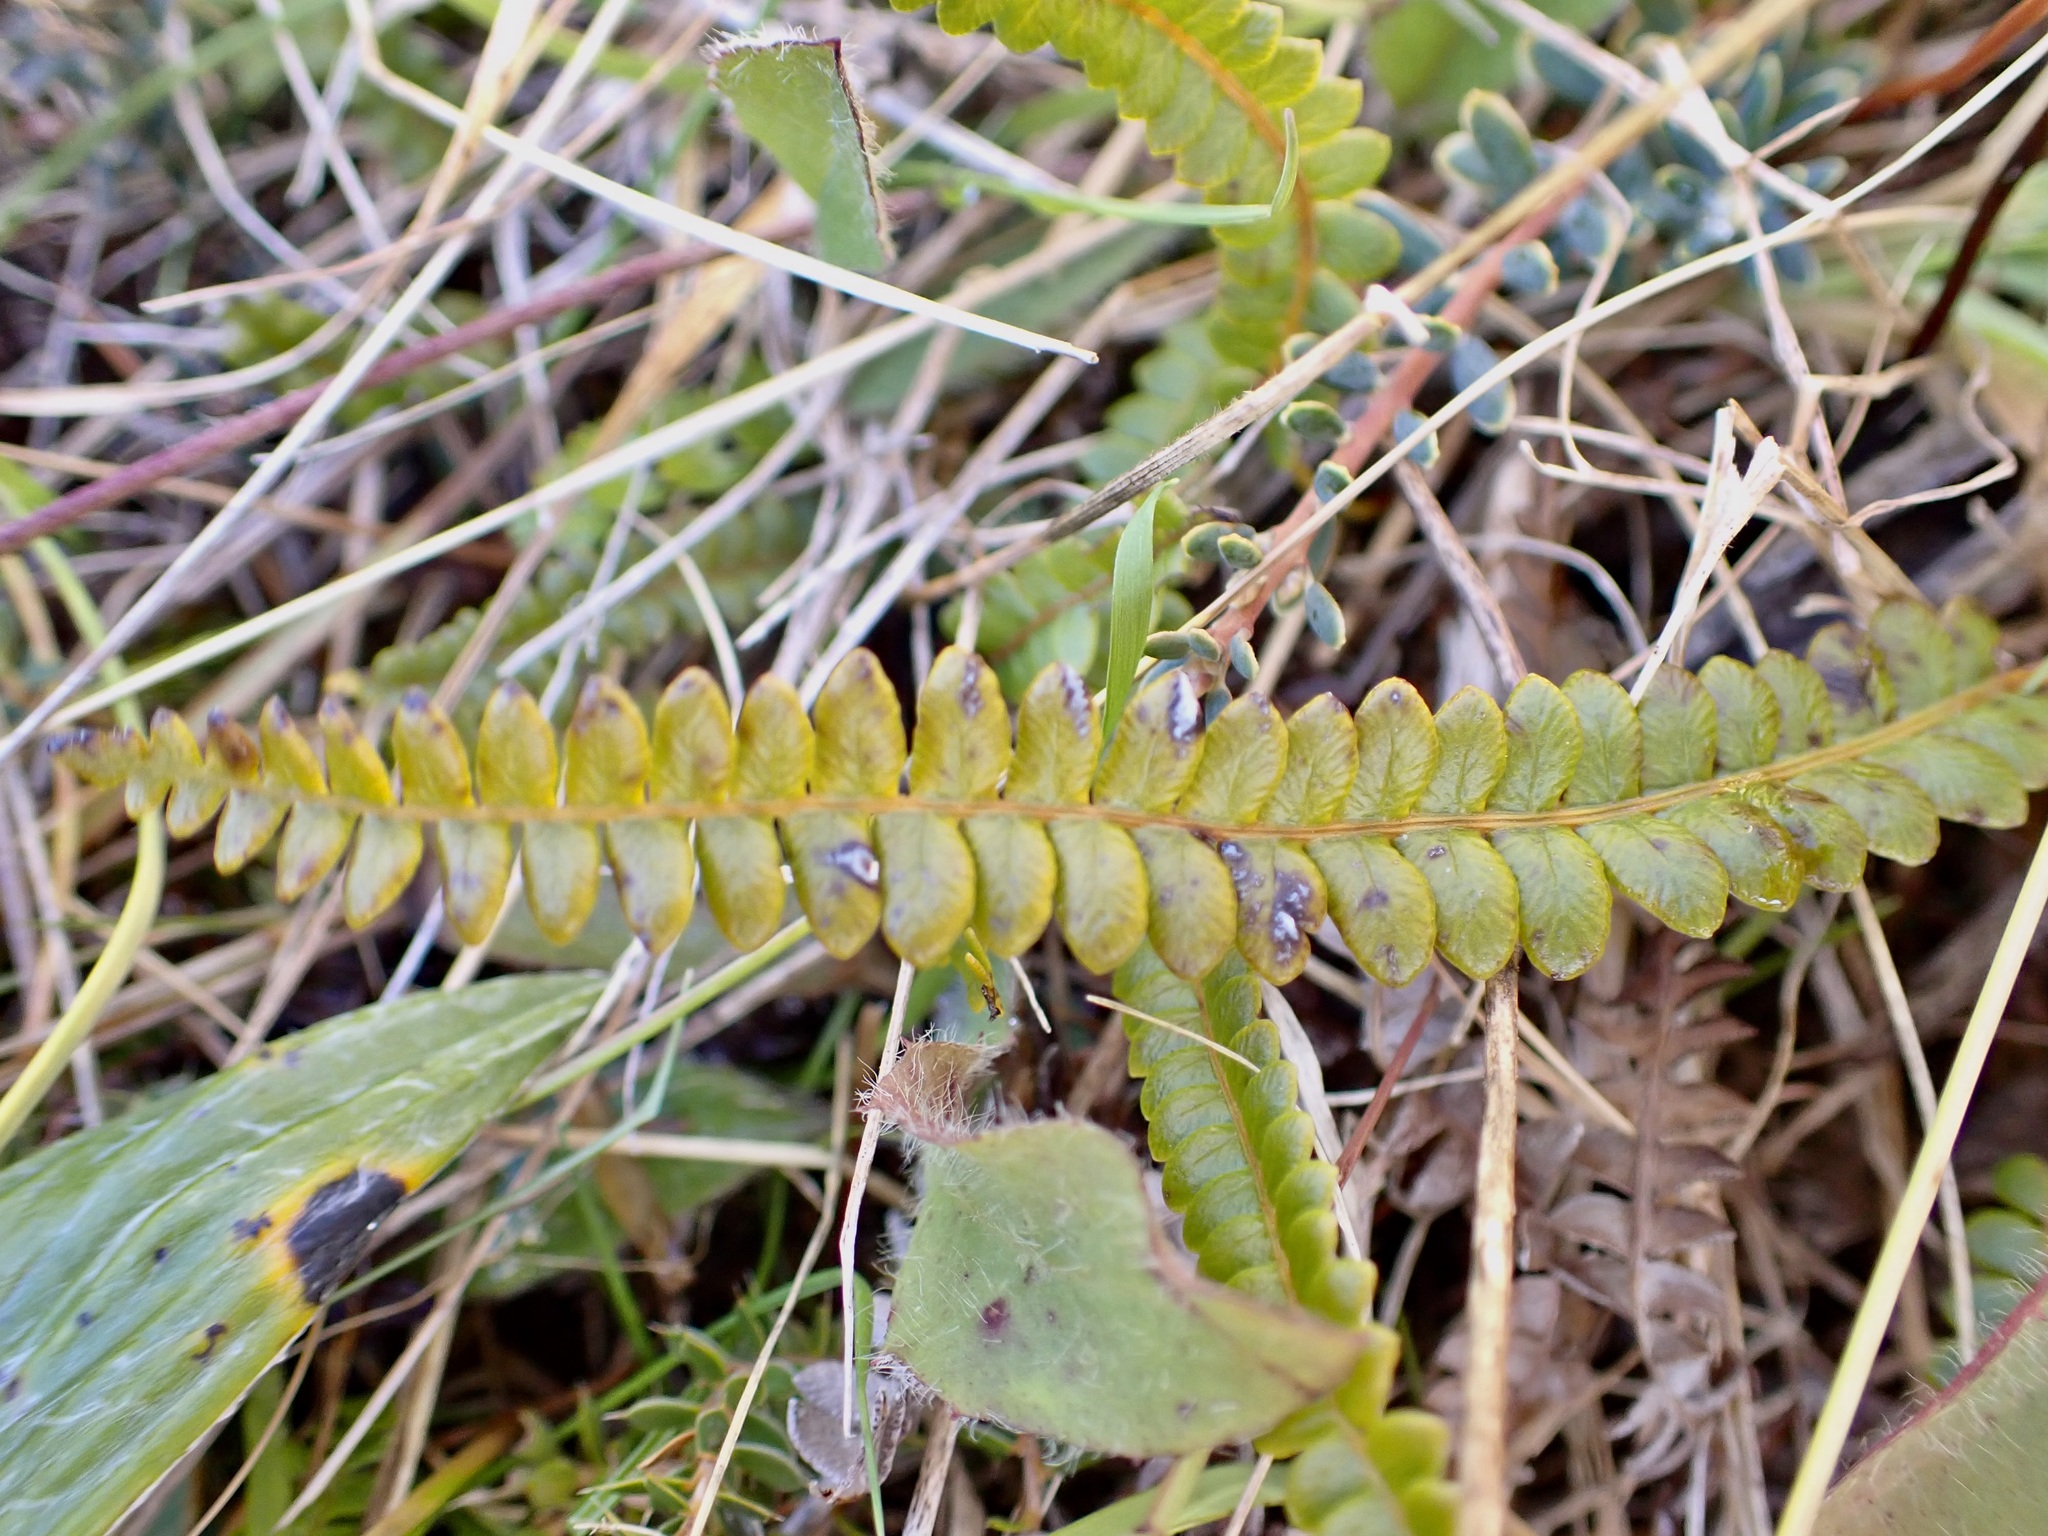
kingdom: Plantae
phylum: Tracheophyta
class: Polypodiopsida
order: Polypodiales
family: Blechnaceae
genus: Austroblechnum
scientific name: Austroblechnum penna-marina
